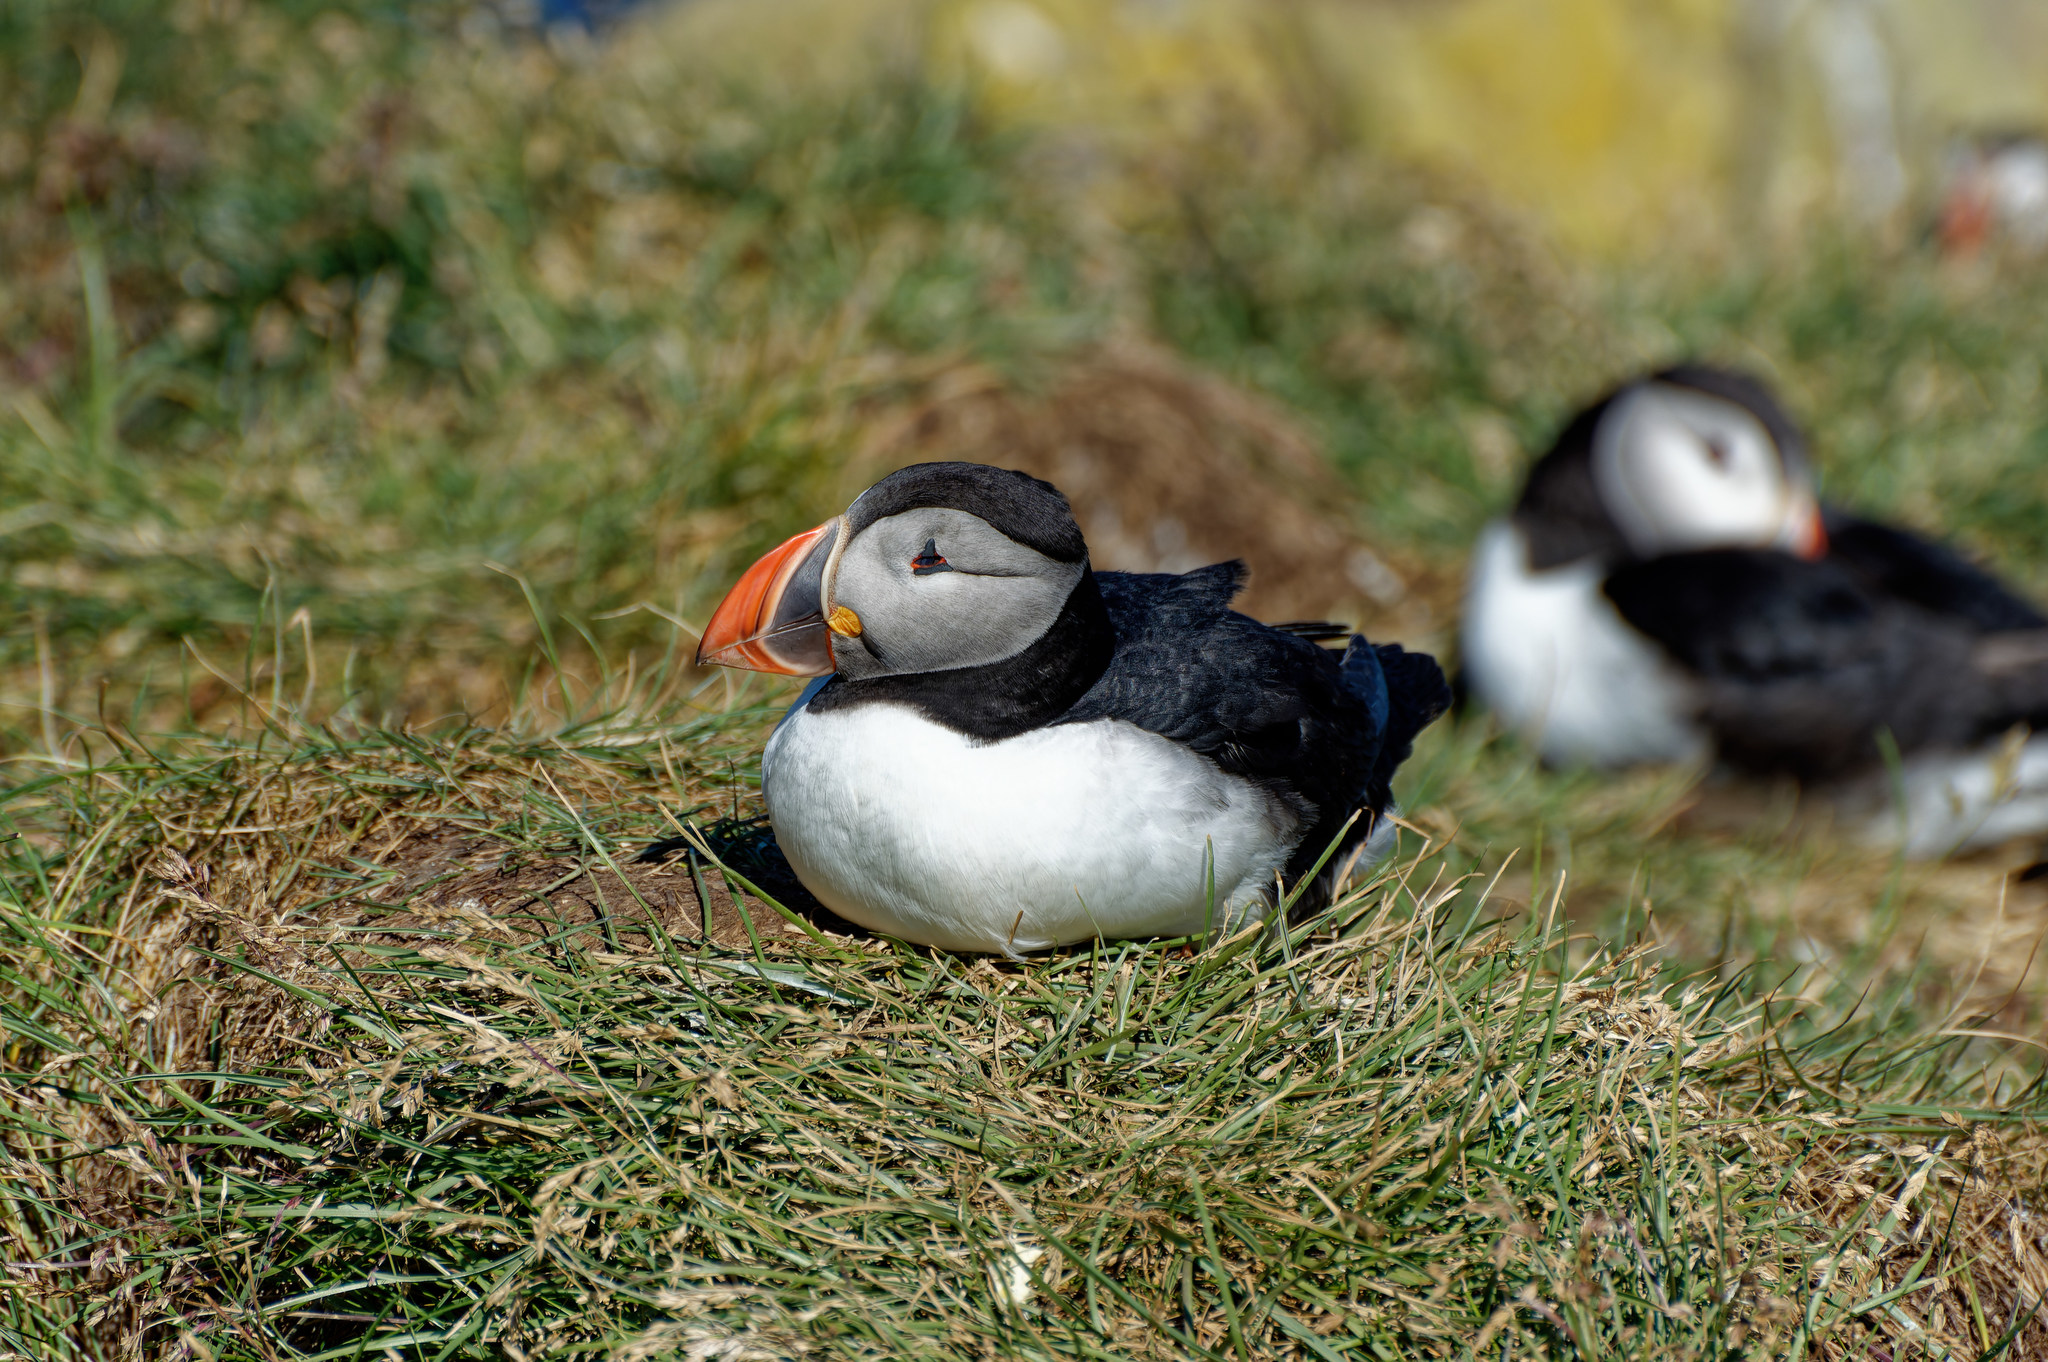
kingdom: Animalia
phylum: Chordata
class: Aves
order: Charadriiformes
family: Alcidae
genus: Fratercula
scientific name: Fratercula arctica
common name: Atlantic puffin
